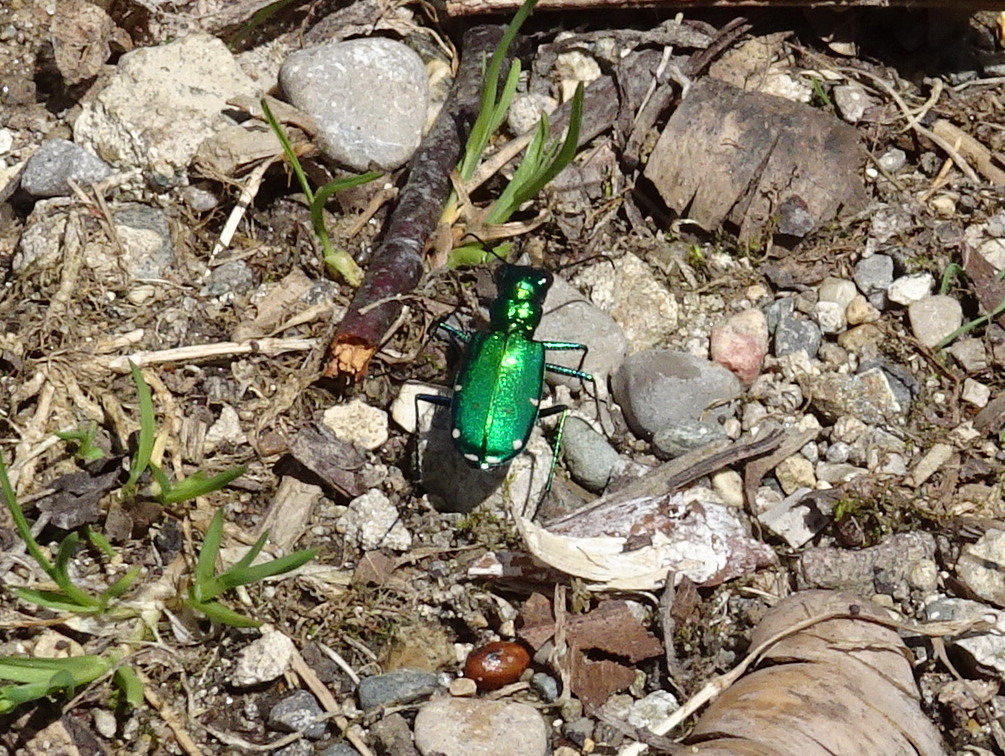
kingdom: Animalia
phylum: Arthropoda
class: Insecta
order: Coleoptera
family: Carabidae
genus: Cicindela
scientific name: Cicindela sexguttata
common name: Six-spotted tiger beetle
